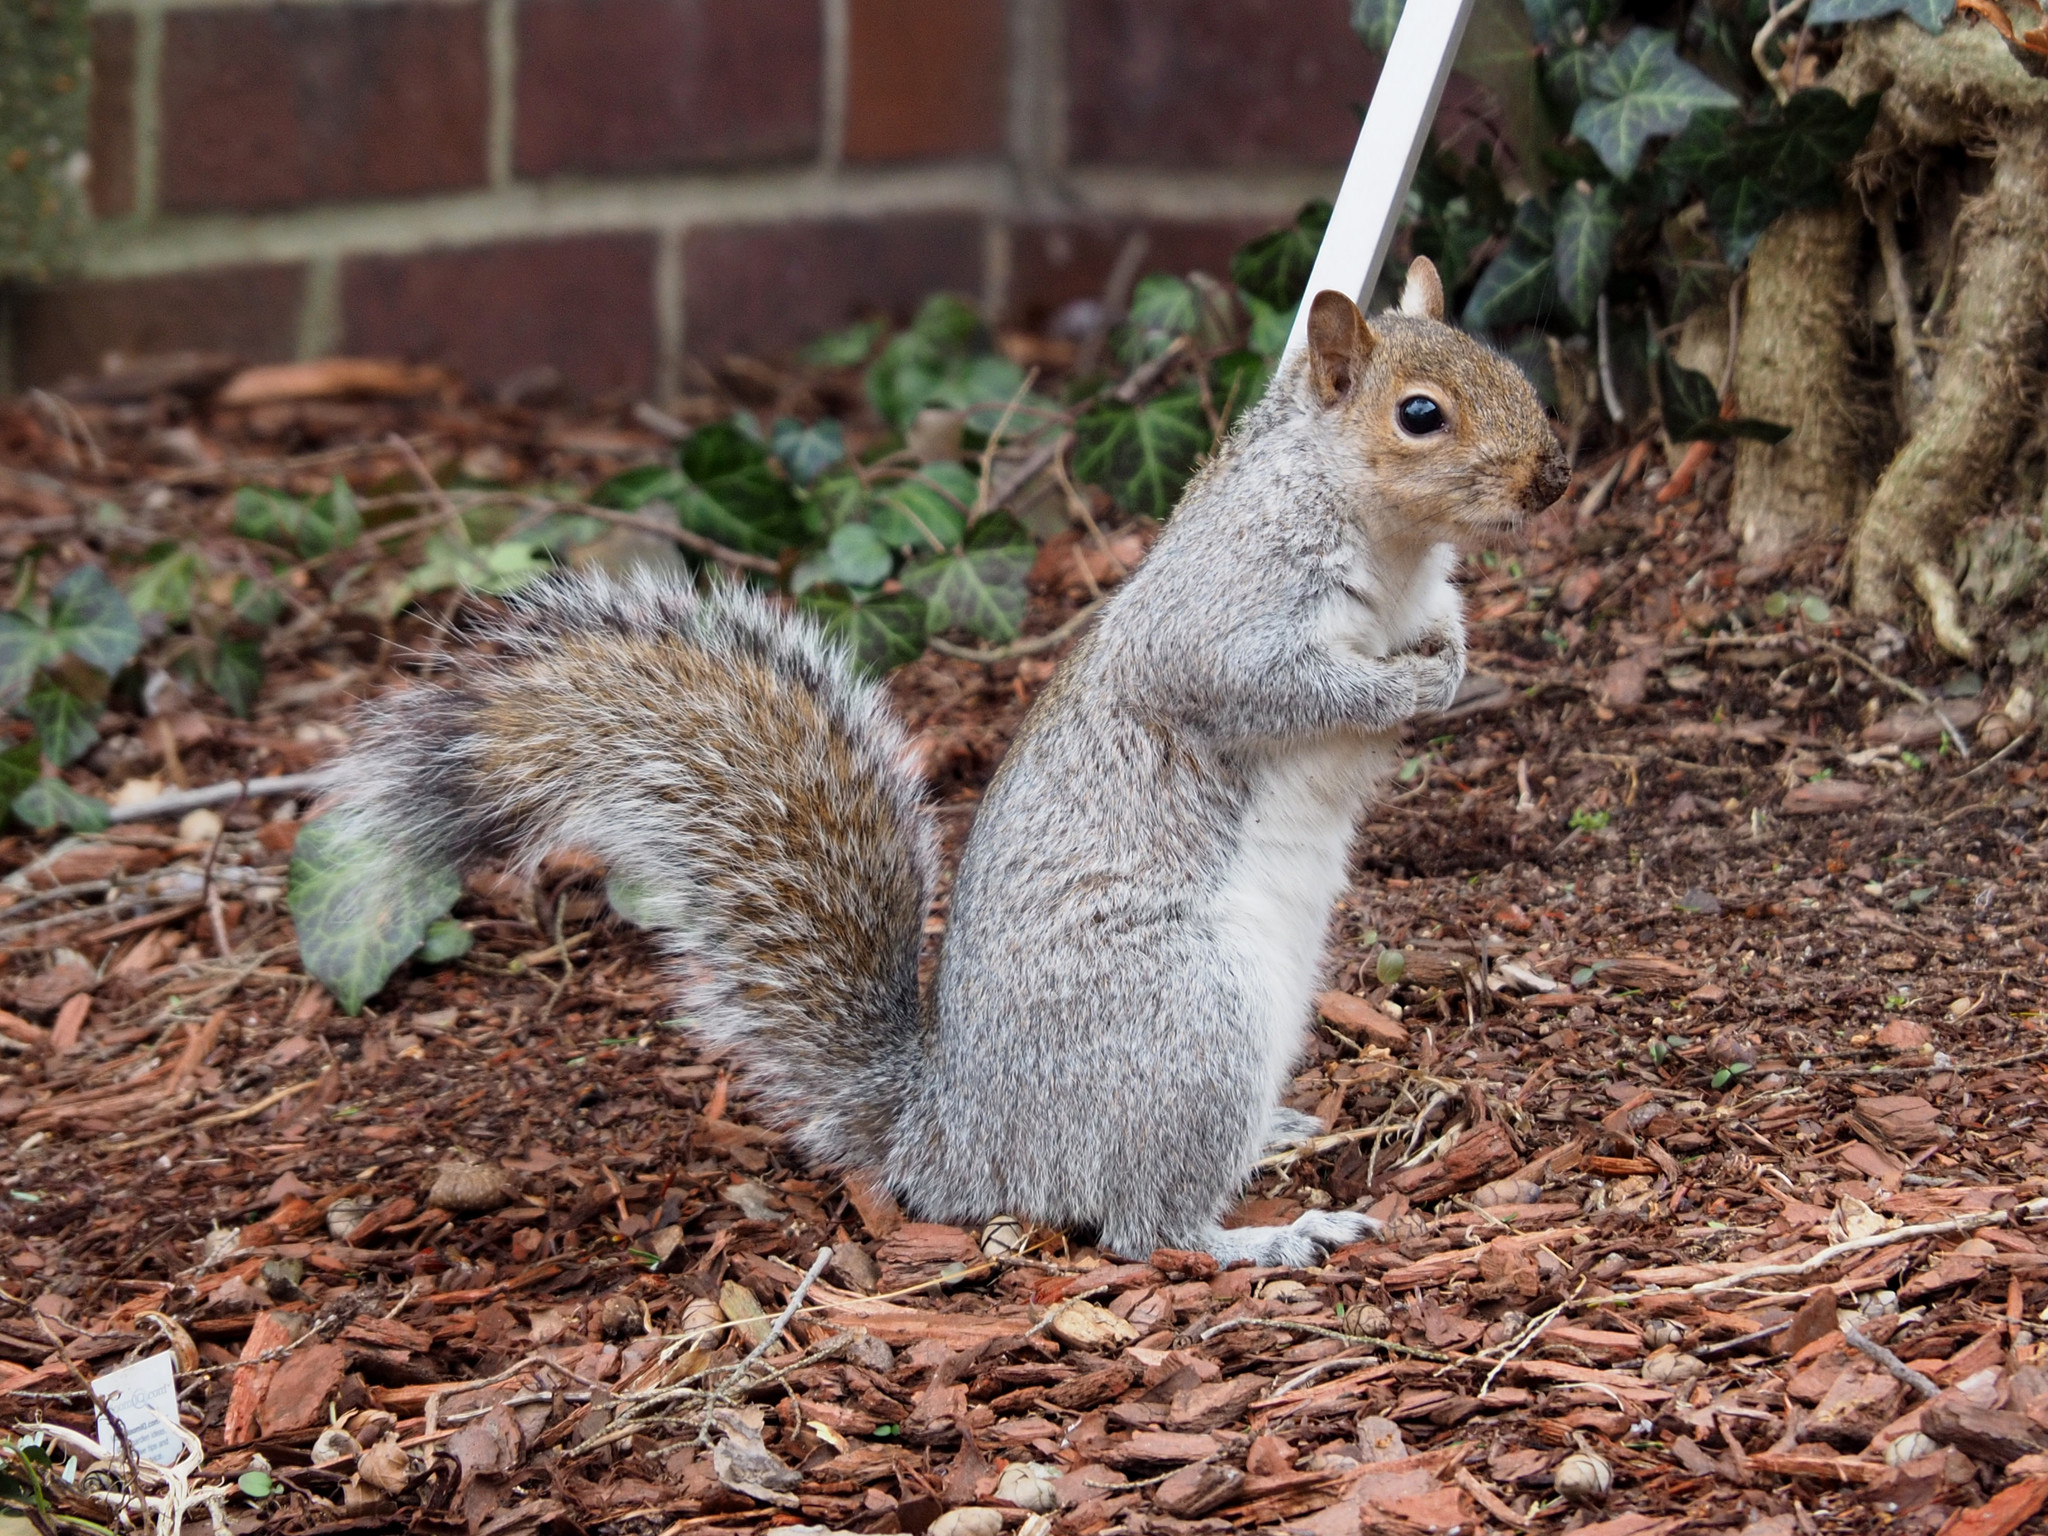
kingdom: Animalia
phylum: Chordata
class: Mammalia
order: Rodentia
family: Sciuridae
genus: Sciurus
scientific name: Sciurus carolinensis
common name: Eastern gray squirrel
